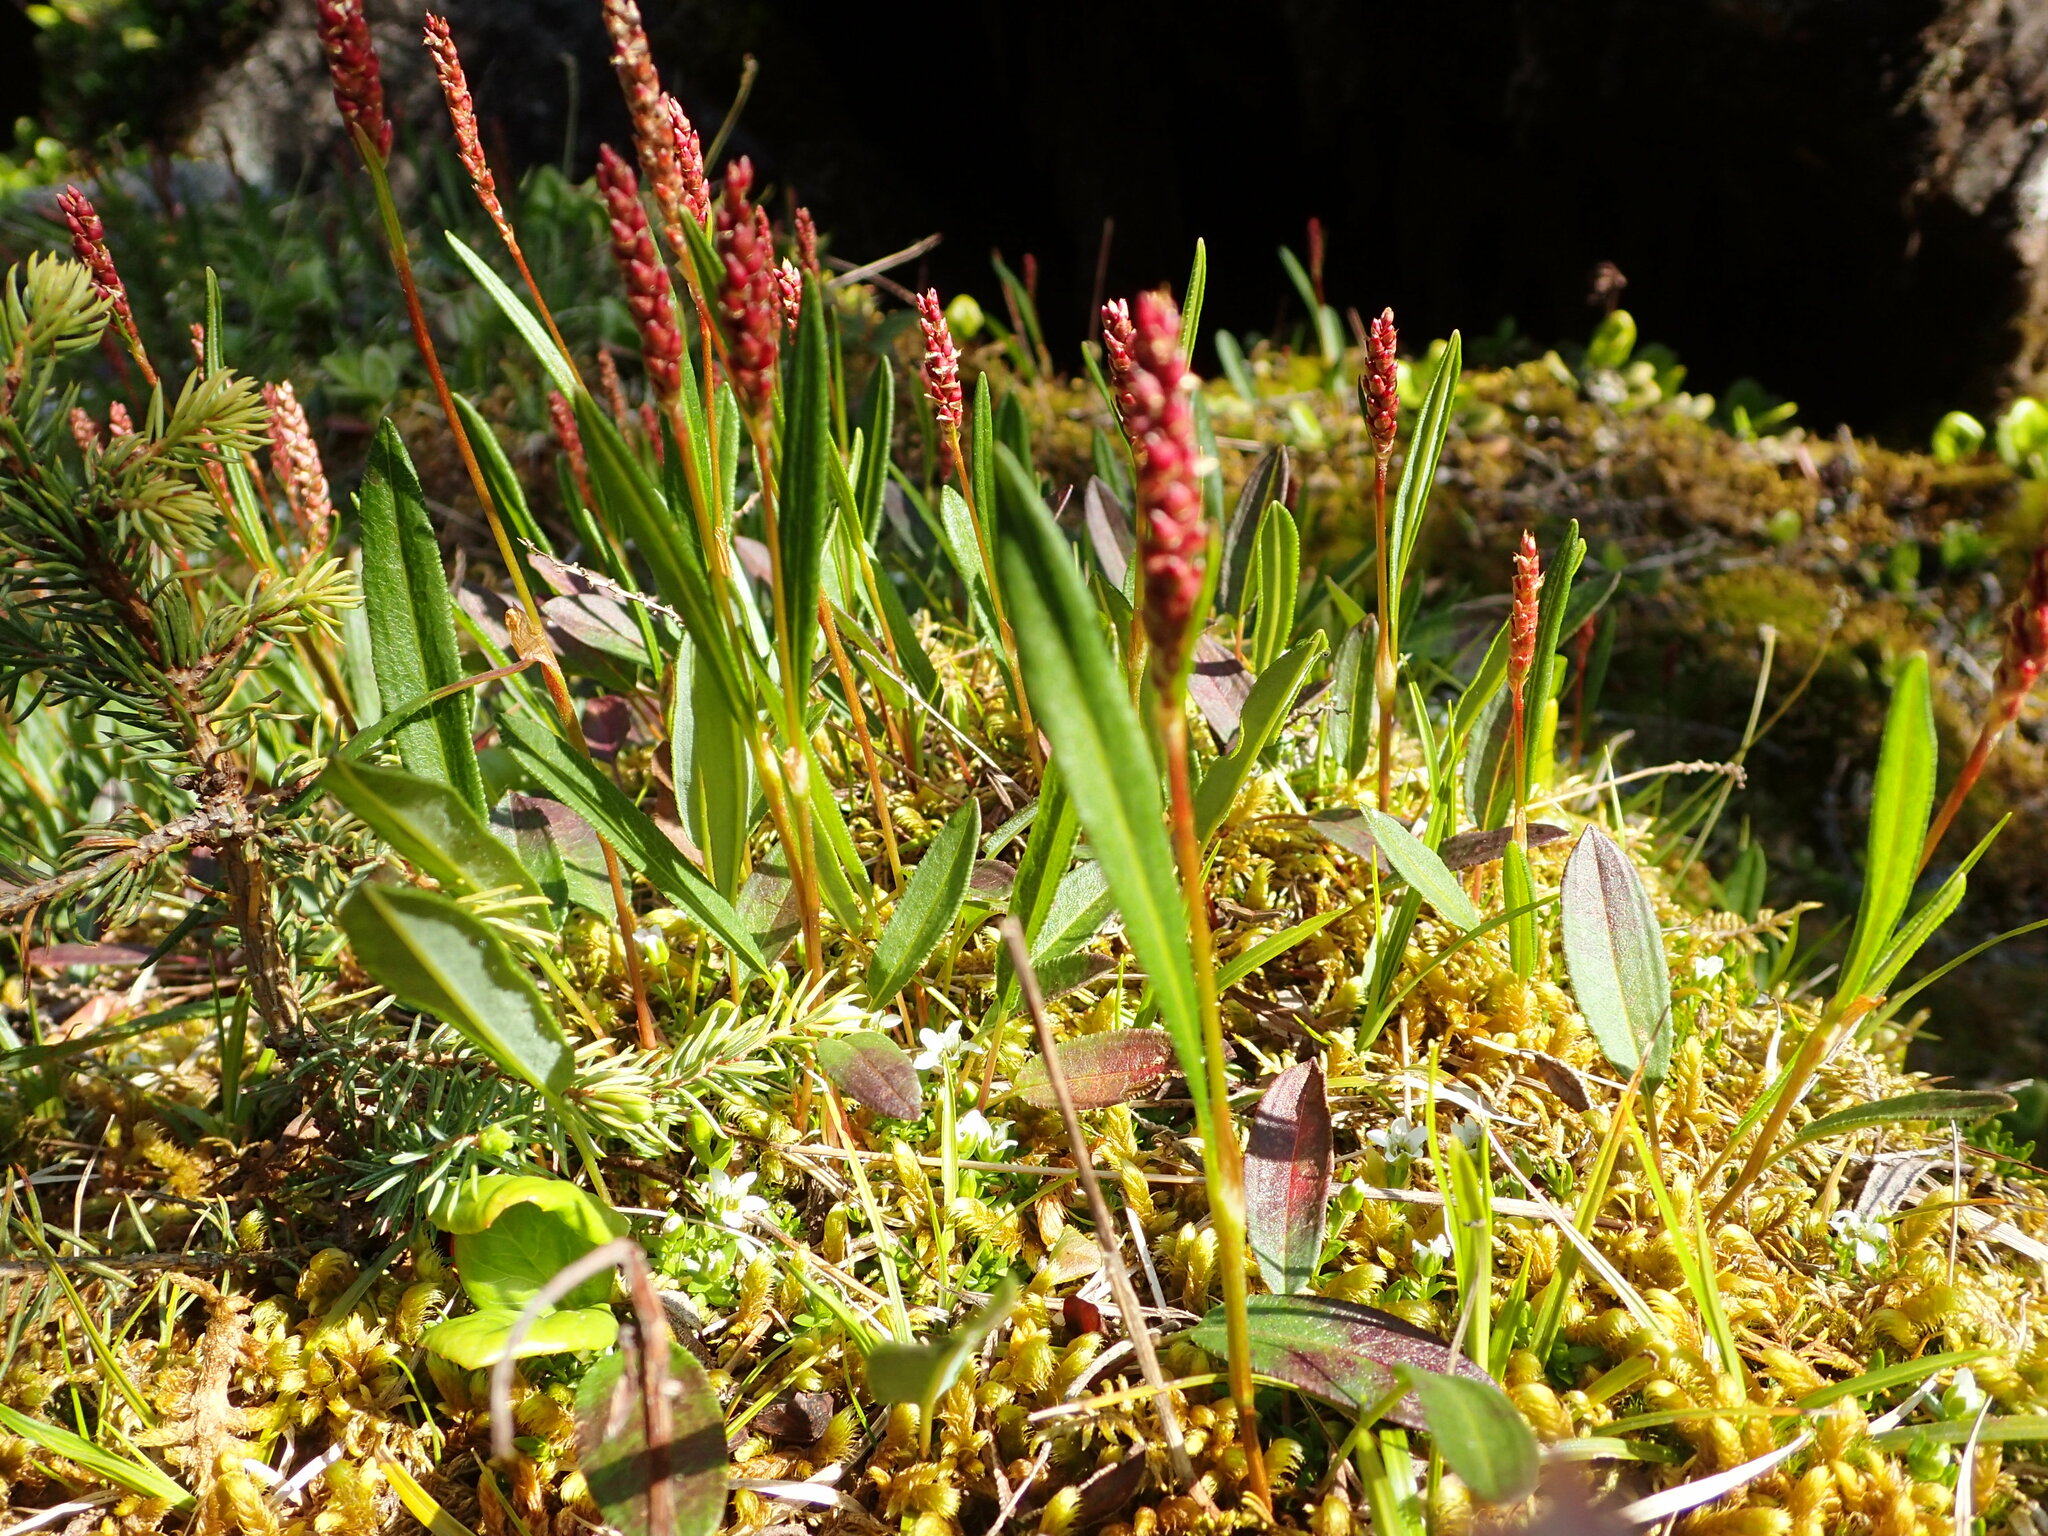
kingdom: Plantae
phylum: Tracheophyta
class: Magnoliopsida
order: Caryophyllales
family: Polygonaceae
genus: Bistorta
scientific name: Bistorta vivipara
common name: Alpine bistort
